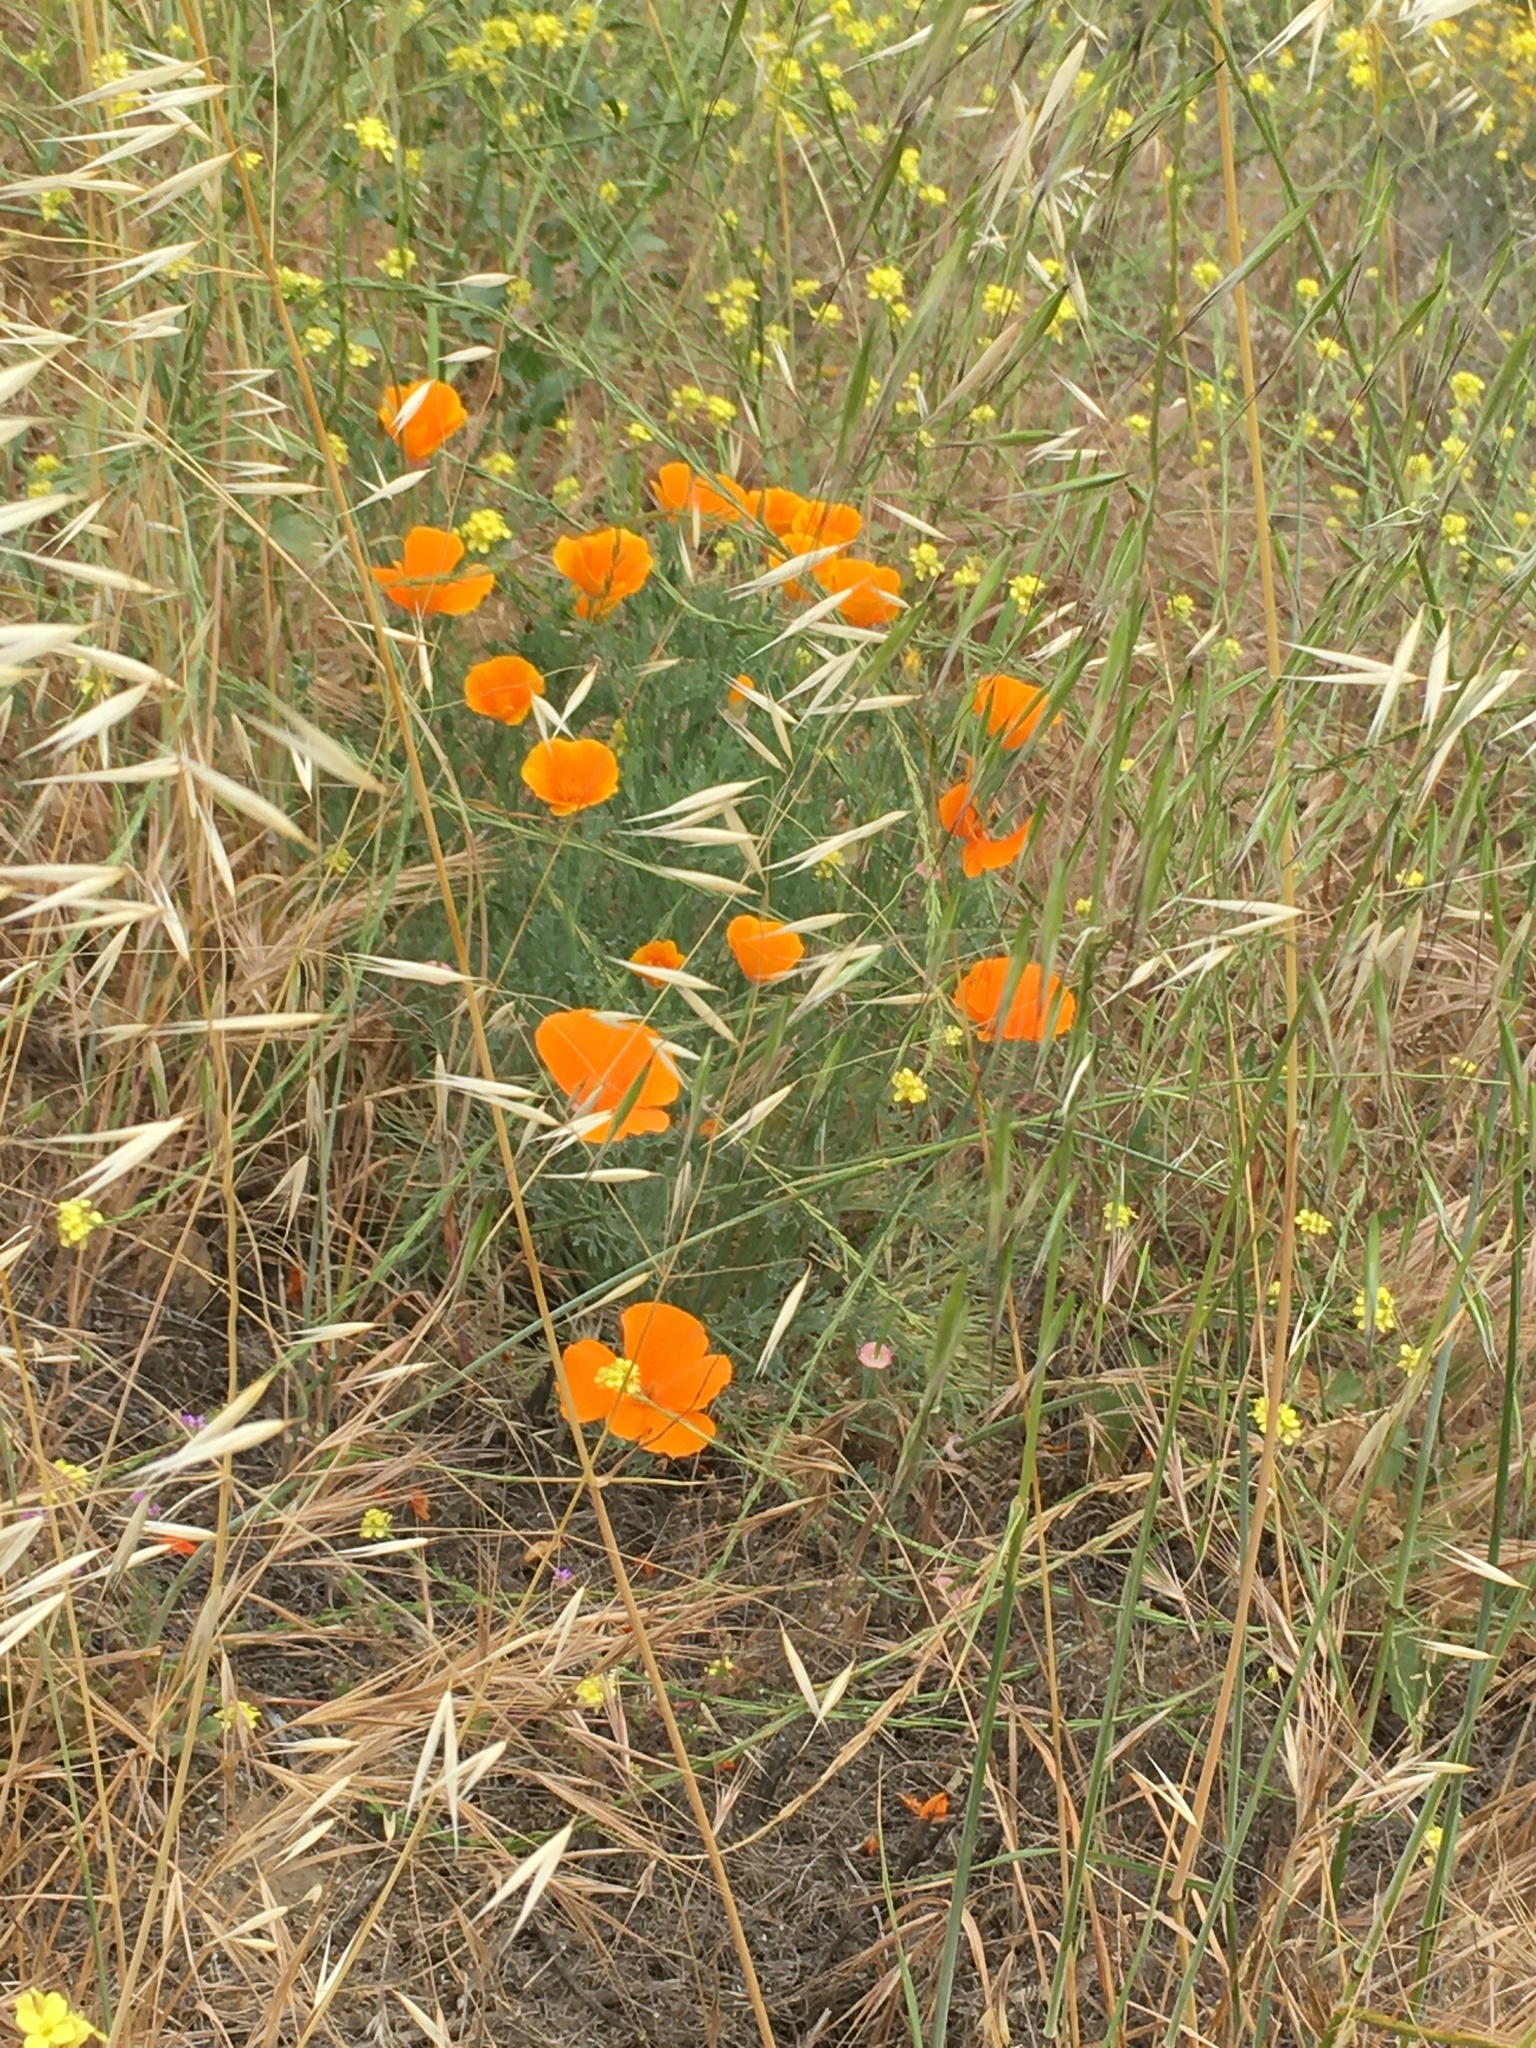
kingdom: Plantae
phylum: Tracheophyta
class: Magnoliopsida
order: Ranunculales
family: Papaveraceae
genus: Eschscholzia
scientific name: Eschscholzia californica
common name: California poppy
